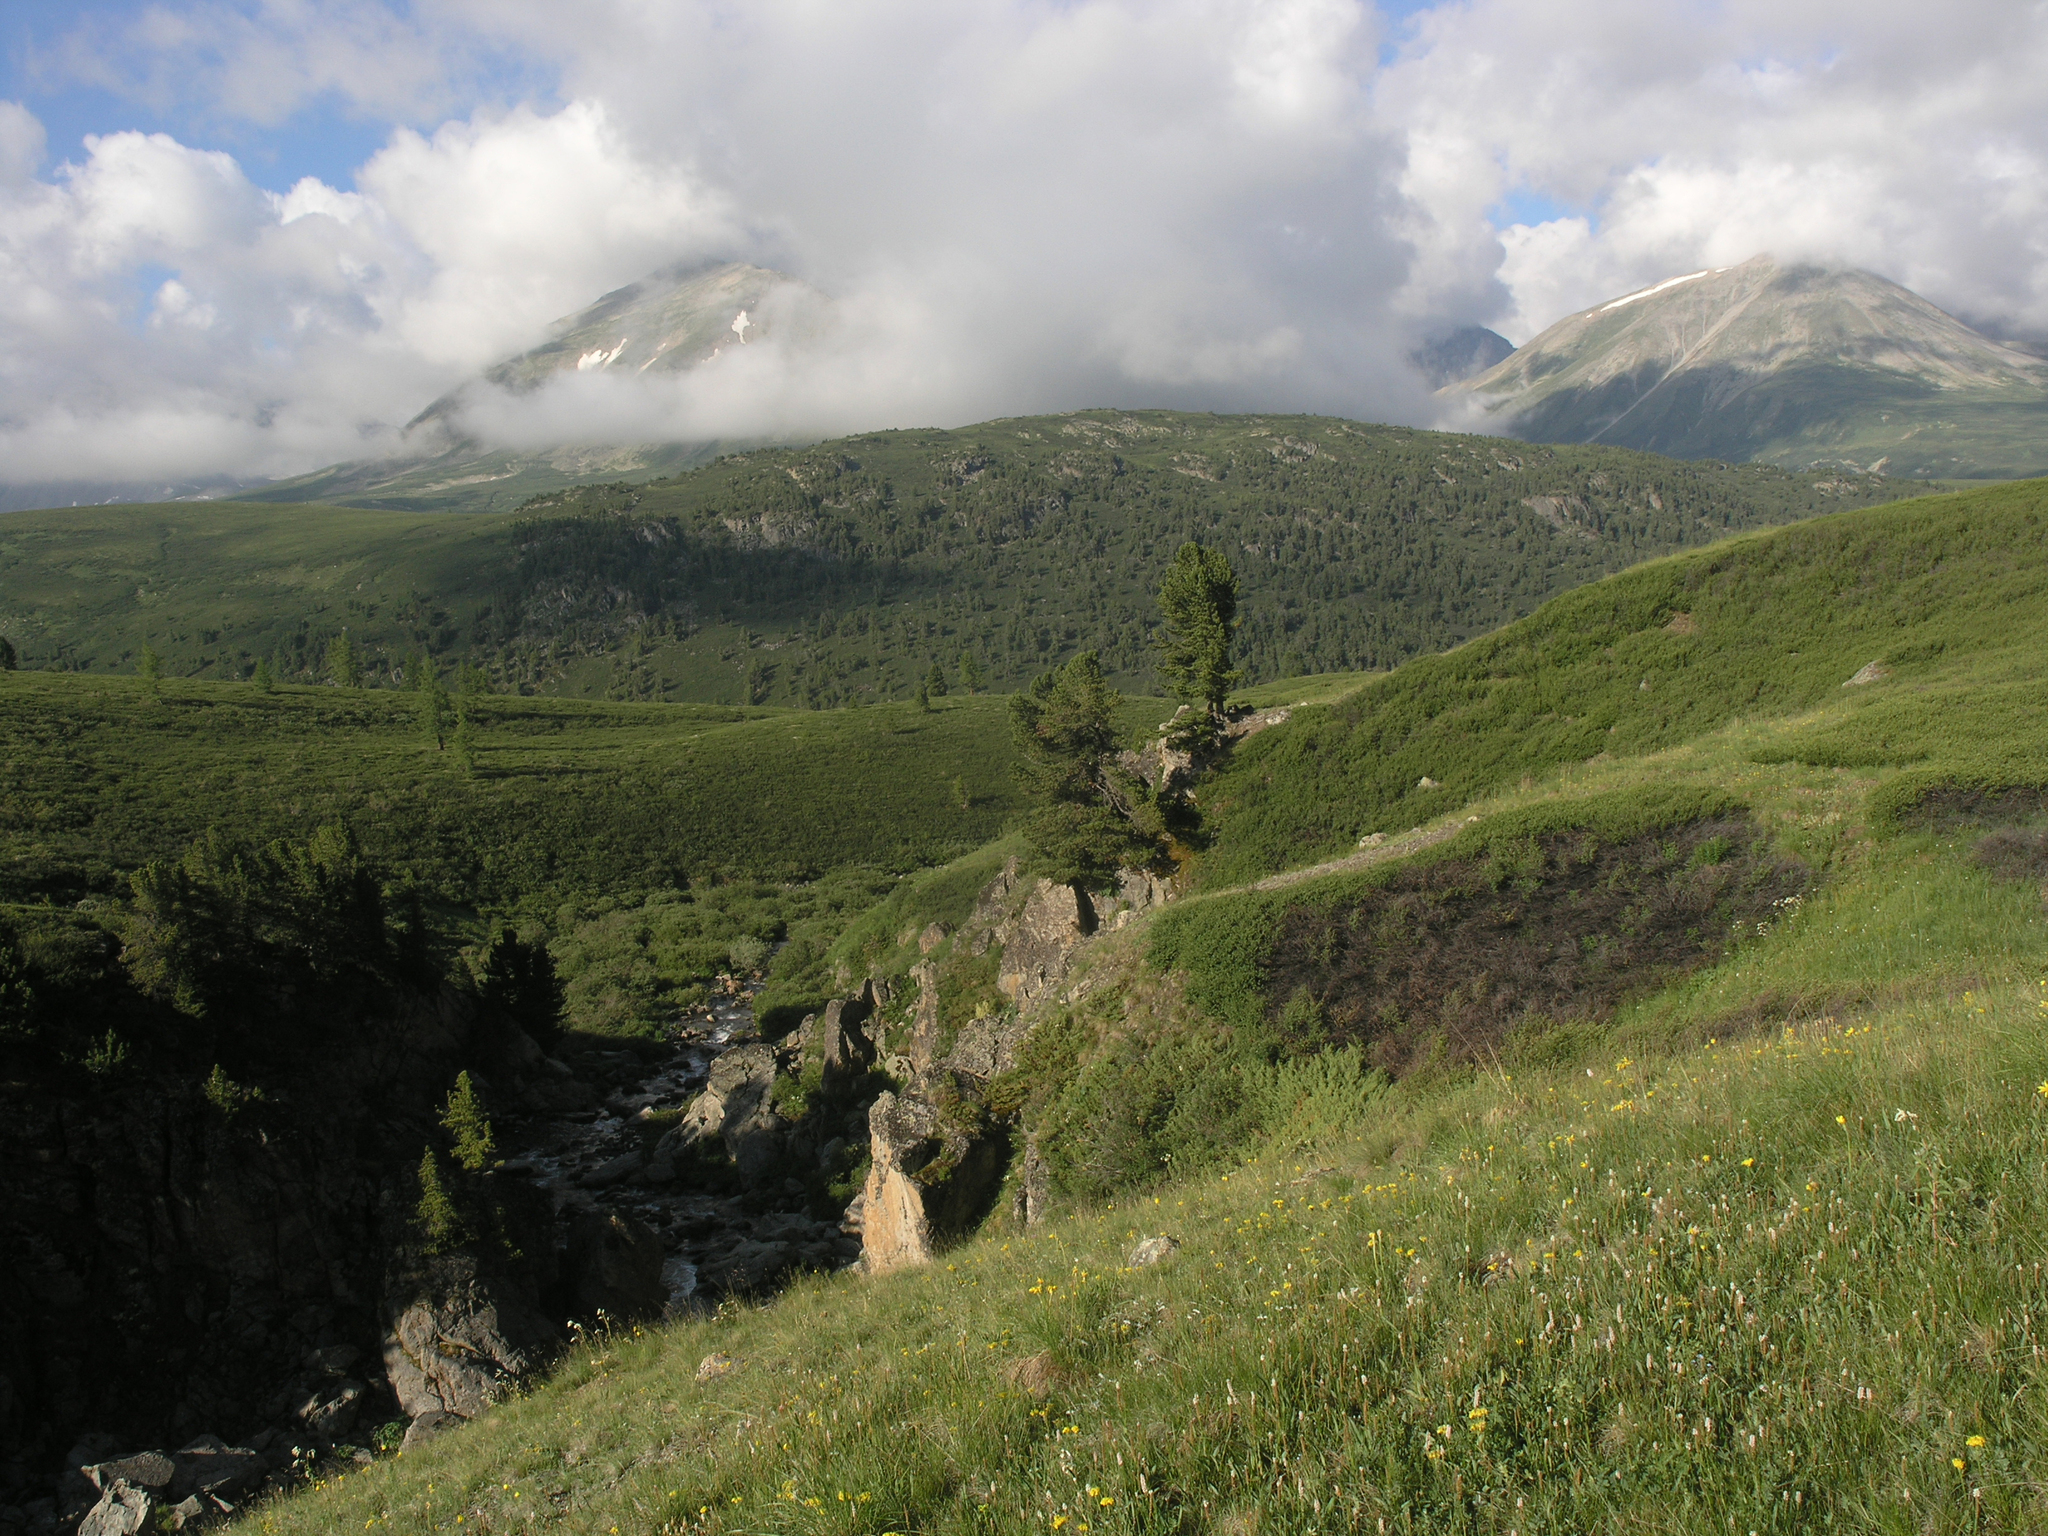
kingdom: Plantae
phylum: Tracheophyta
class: Pinopsida
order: Pinales
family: Pinaceae
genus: Pinus
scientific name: Pinus sibirica
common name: Siberian pine
